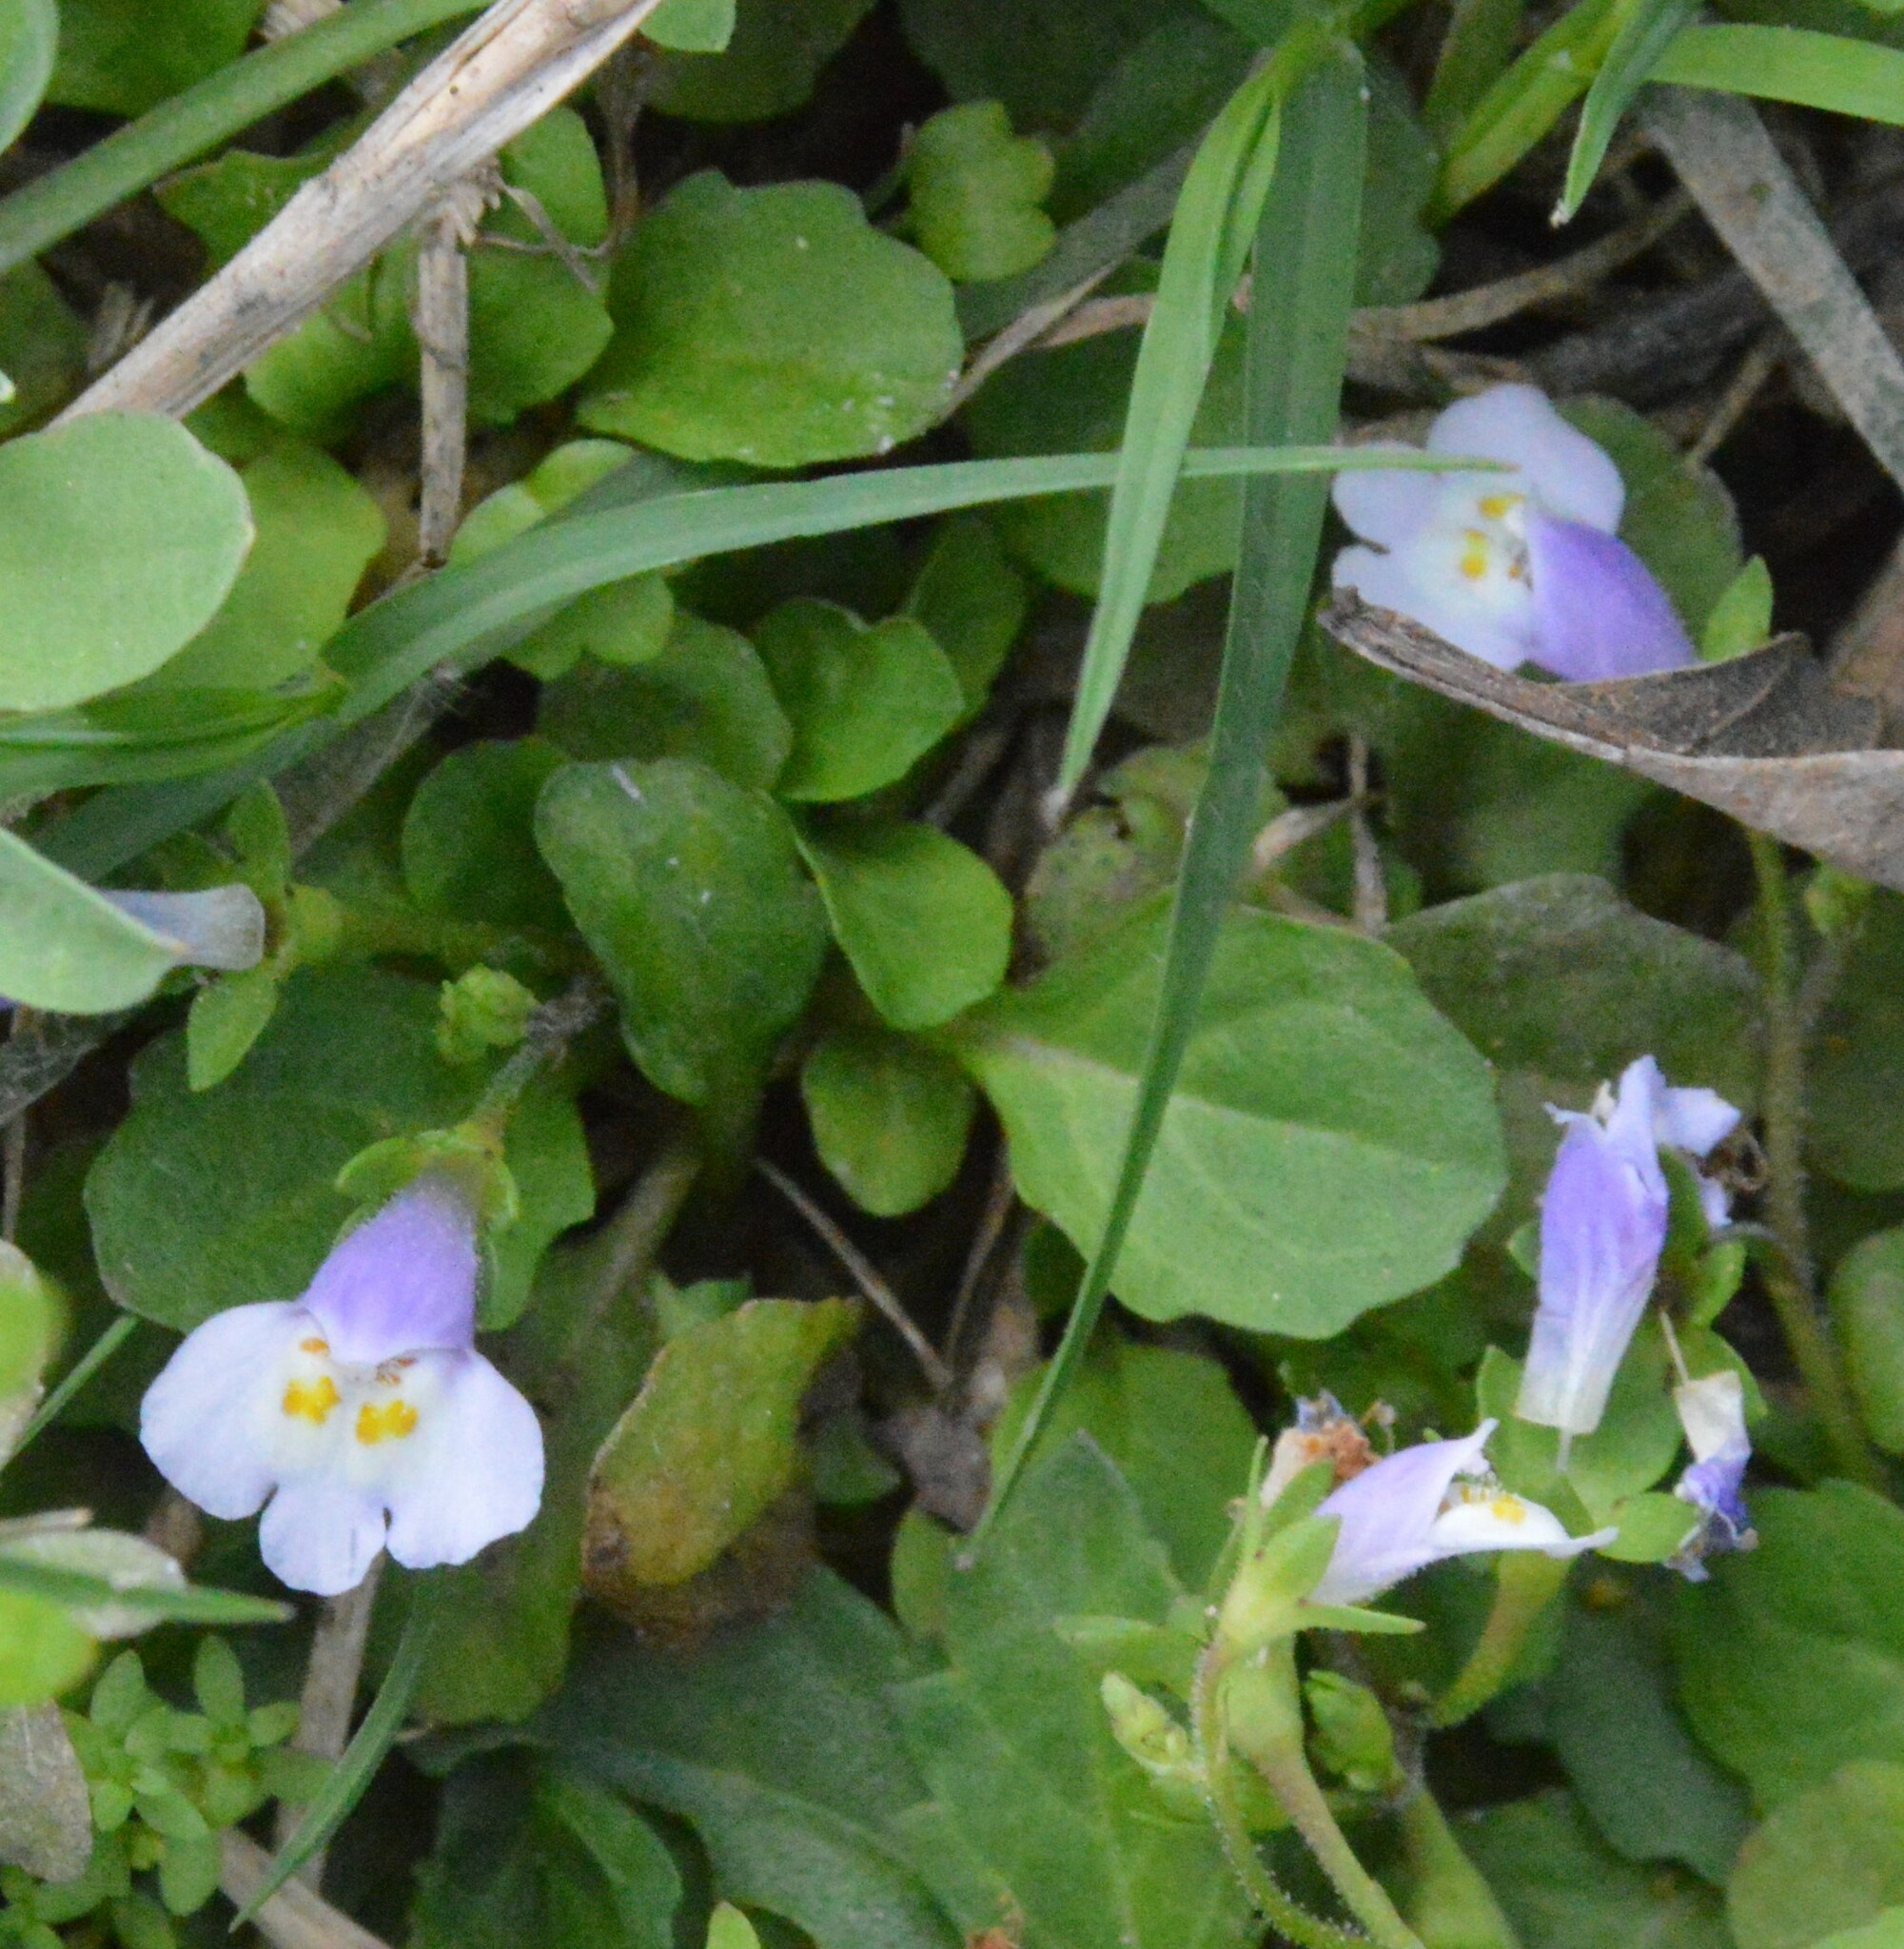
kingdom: Plantae
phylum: Tracheophyta
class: Magnoliopsida
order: Lamiales
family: Mazaceae
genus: Mazus
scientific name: Mazus pumilus
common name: Japanese mazus
